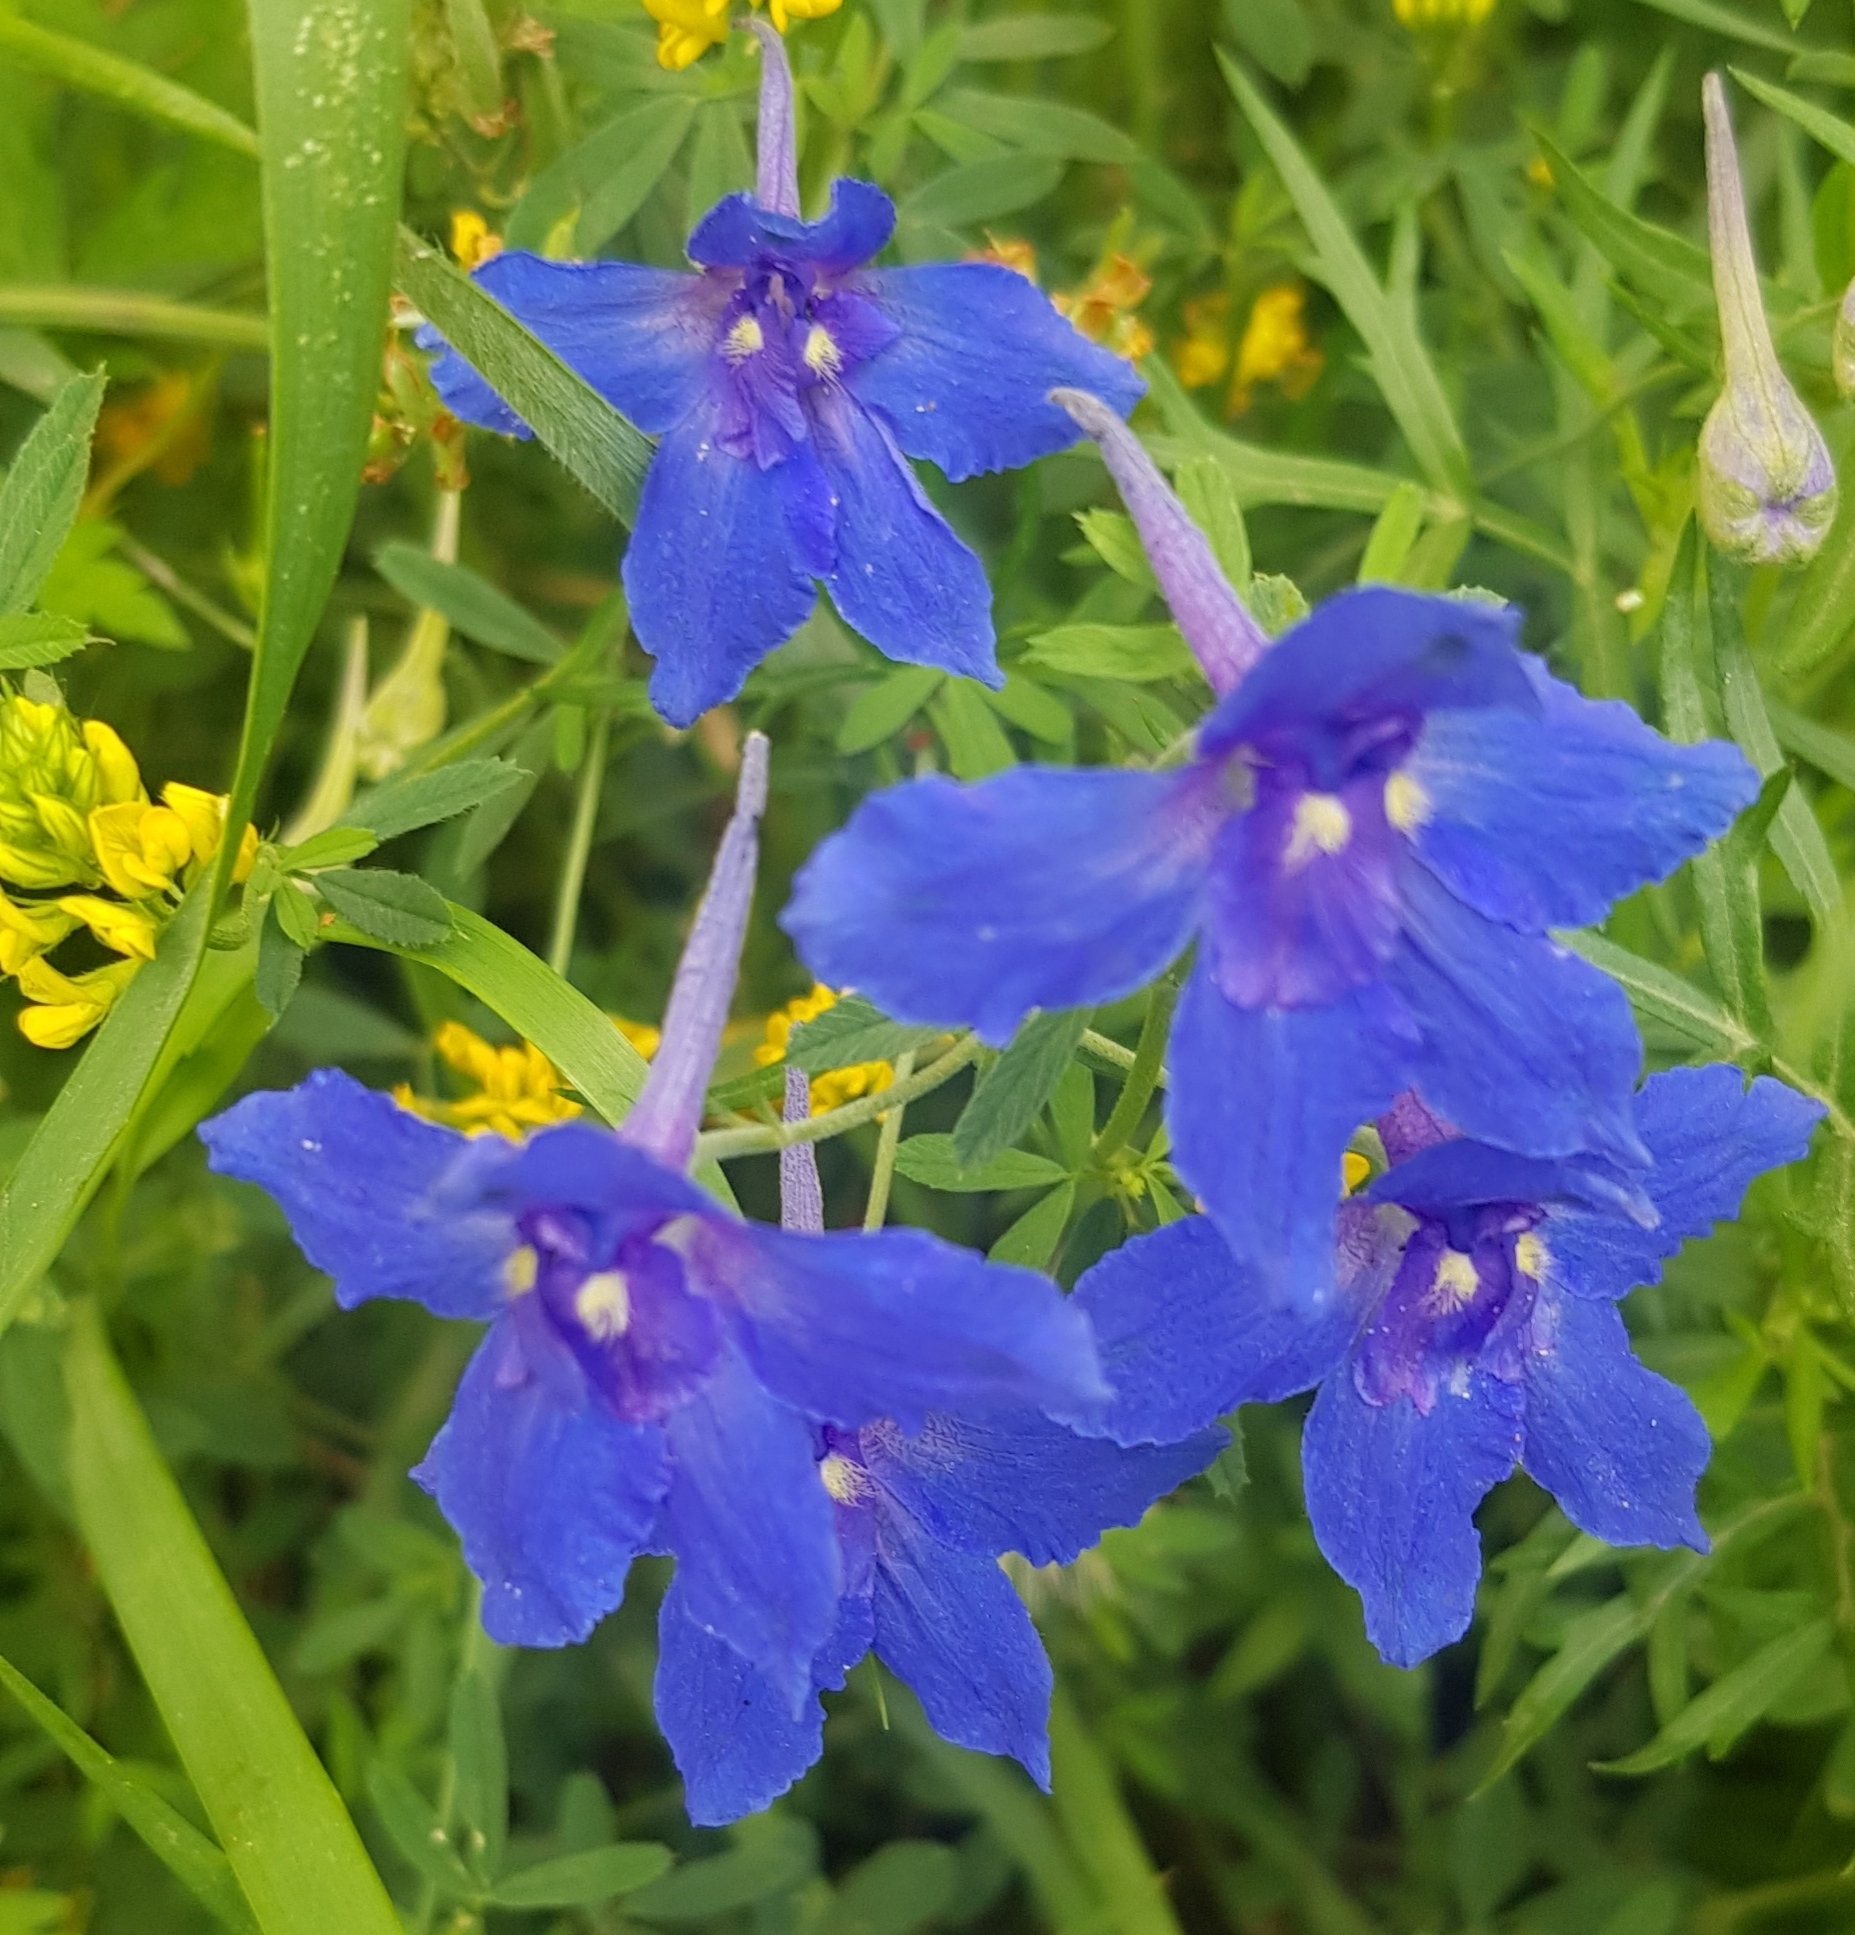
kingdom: Plantae
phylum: Tracheophyta
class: Magnoliopsida
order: Ranunculales
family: Ranunculaceae
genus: Delphinium
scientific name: Delphinium grandiflorum
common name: Siberian larkspur
